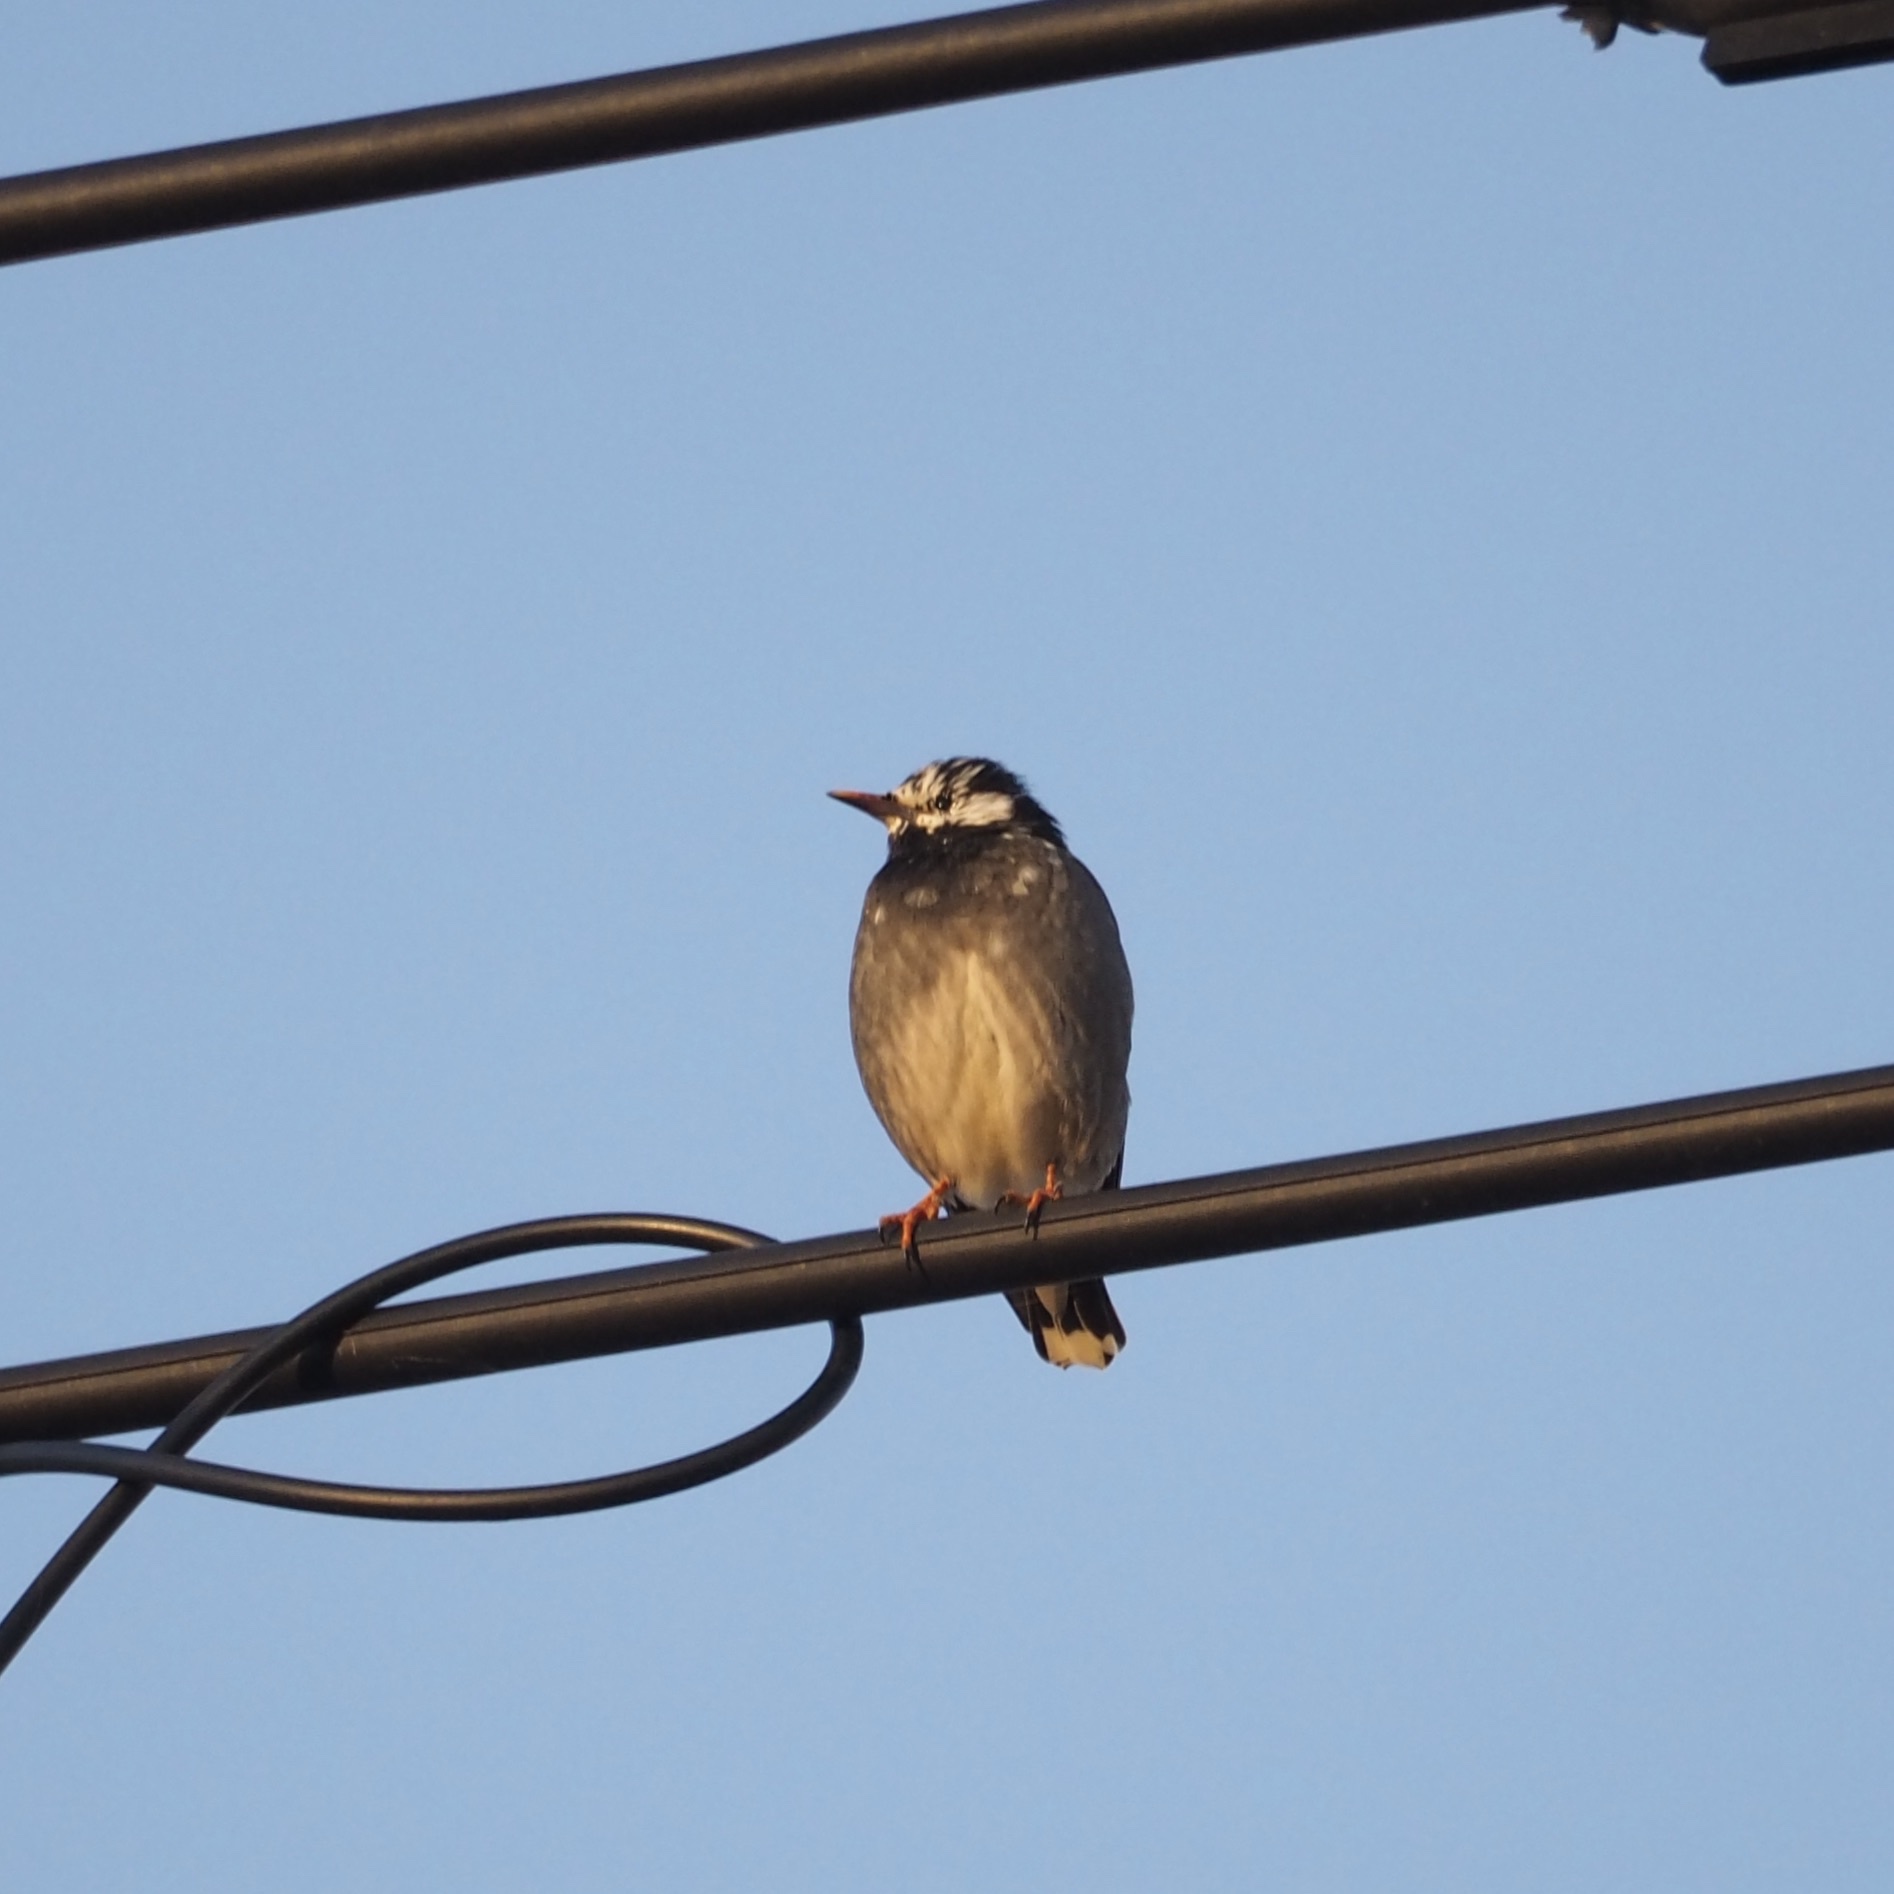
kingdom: Animalia
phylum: Chordata
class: Aves
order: Passeriformes
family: Sturnidae
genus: Spodiopsar
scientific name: Spodiopsar cineraceus
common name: White-cheeked starling
